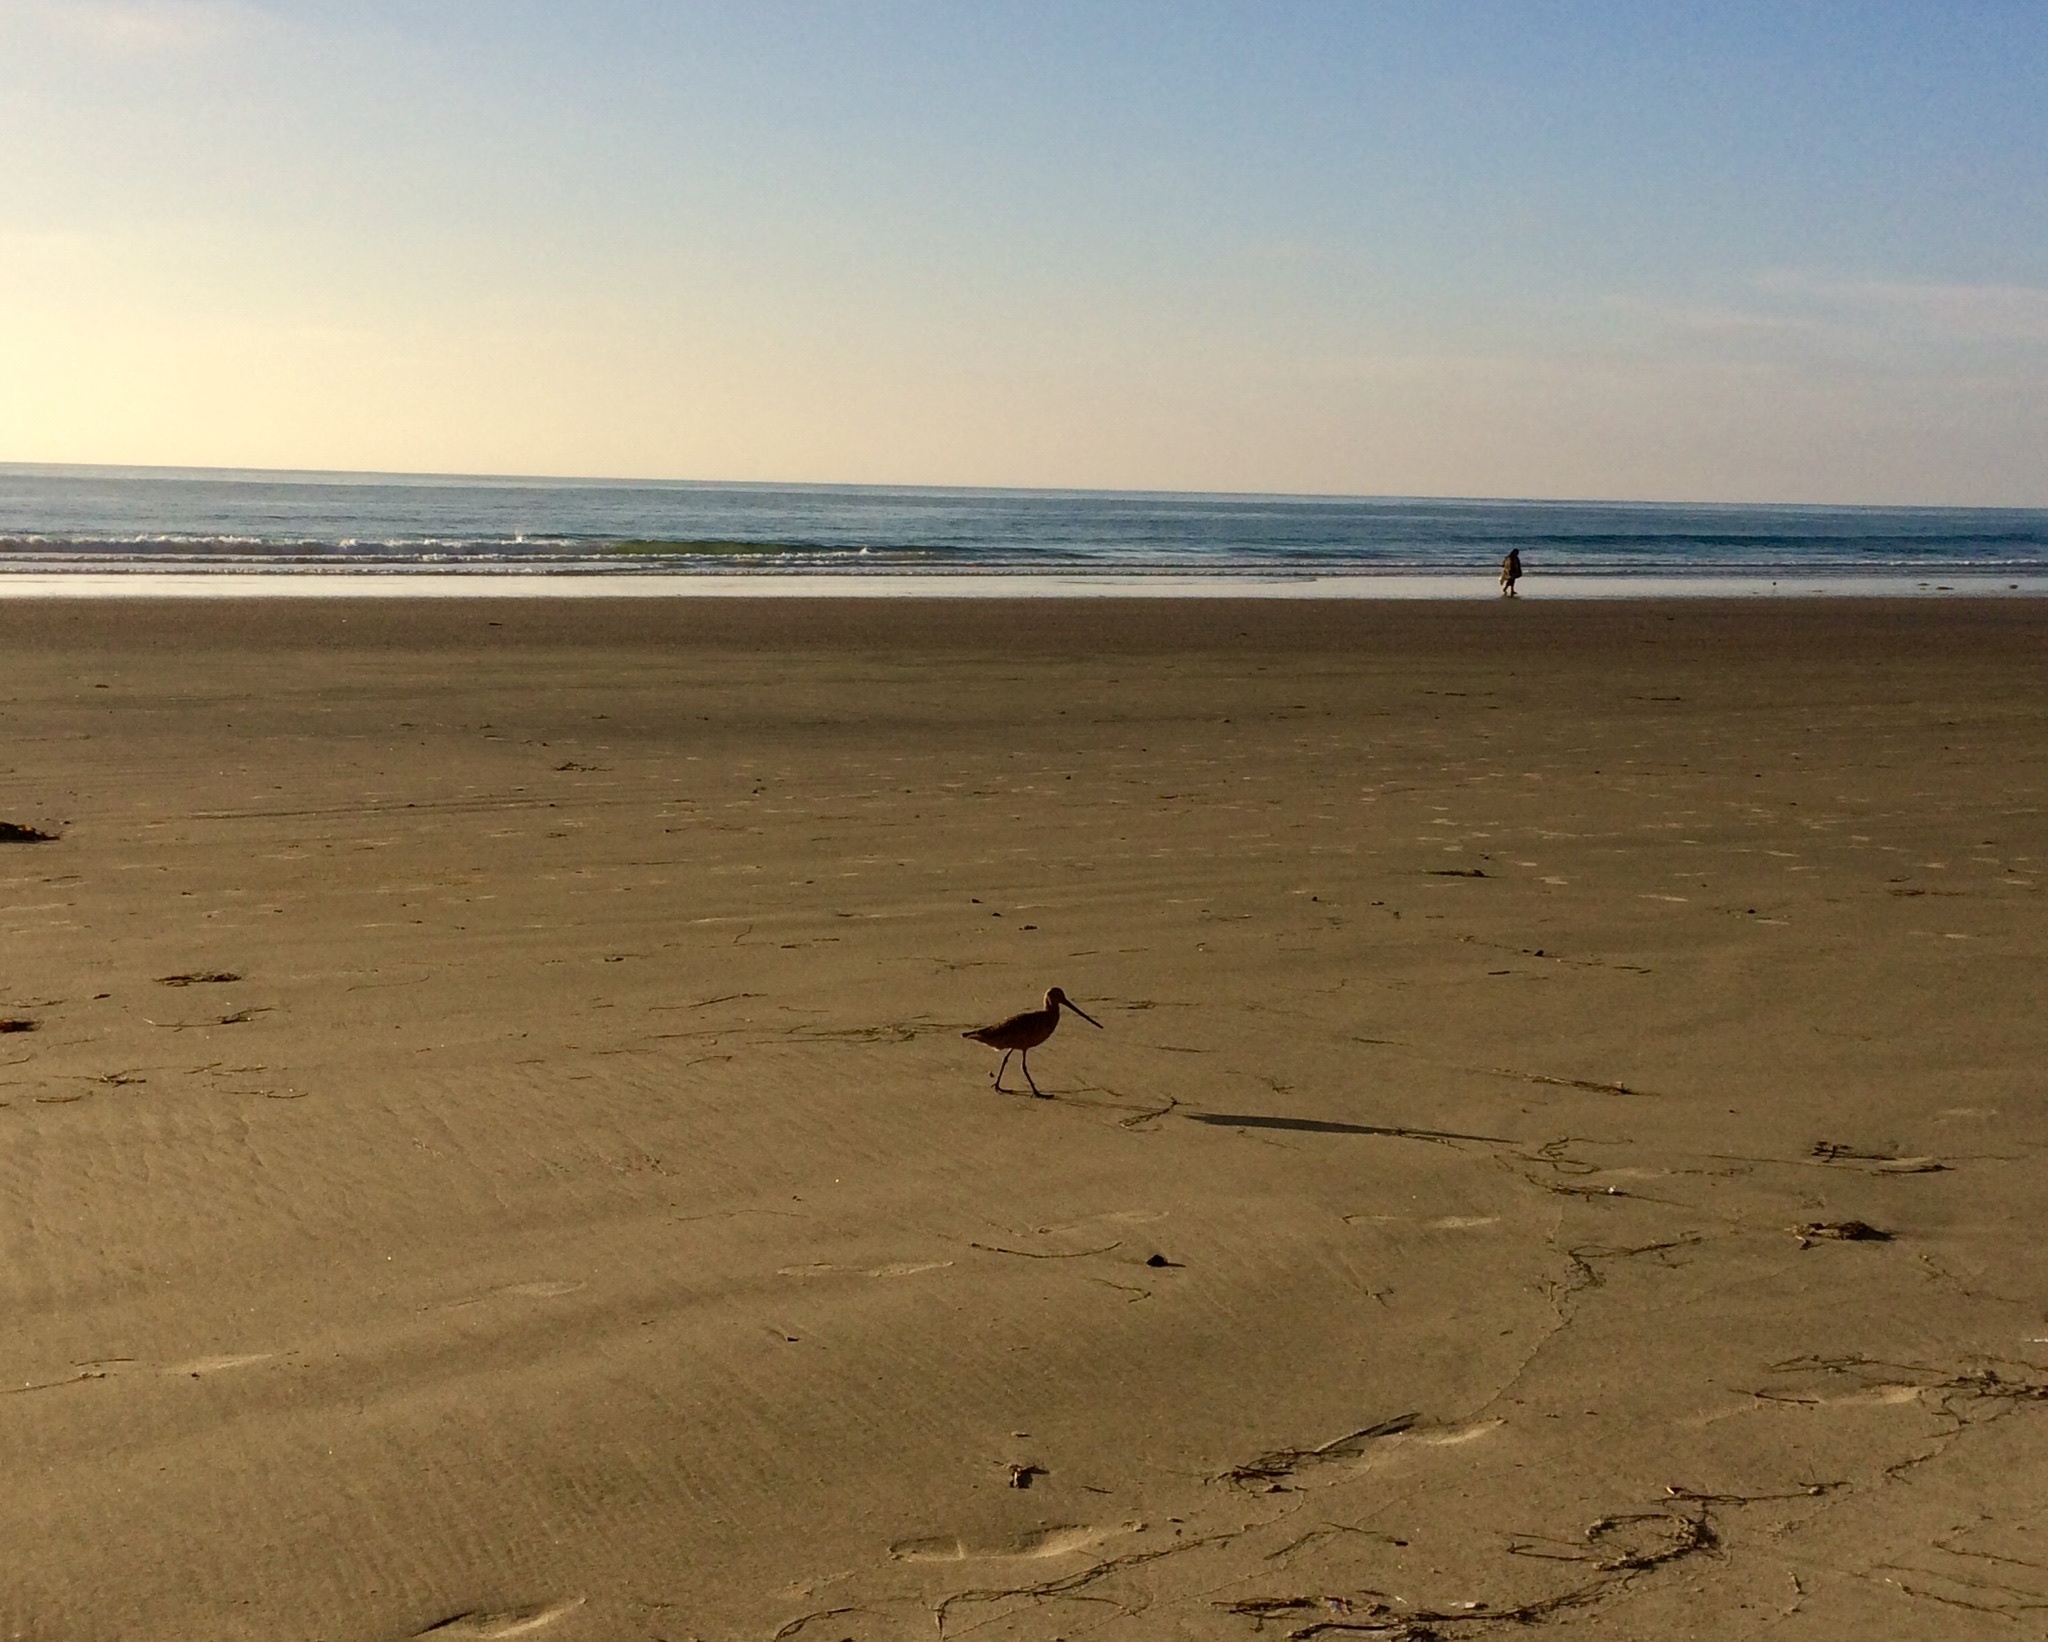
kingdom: Animalia
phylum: Chordata
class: Aves
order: Charadriiformes
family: Scolopacidae
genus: Limosa
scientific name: Limosa fedoa
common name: Marbled godwit
